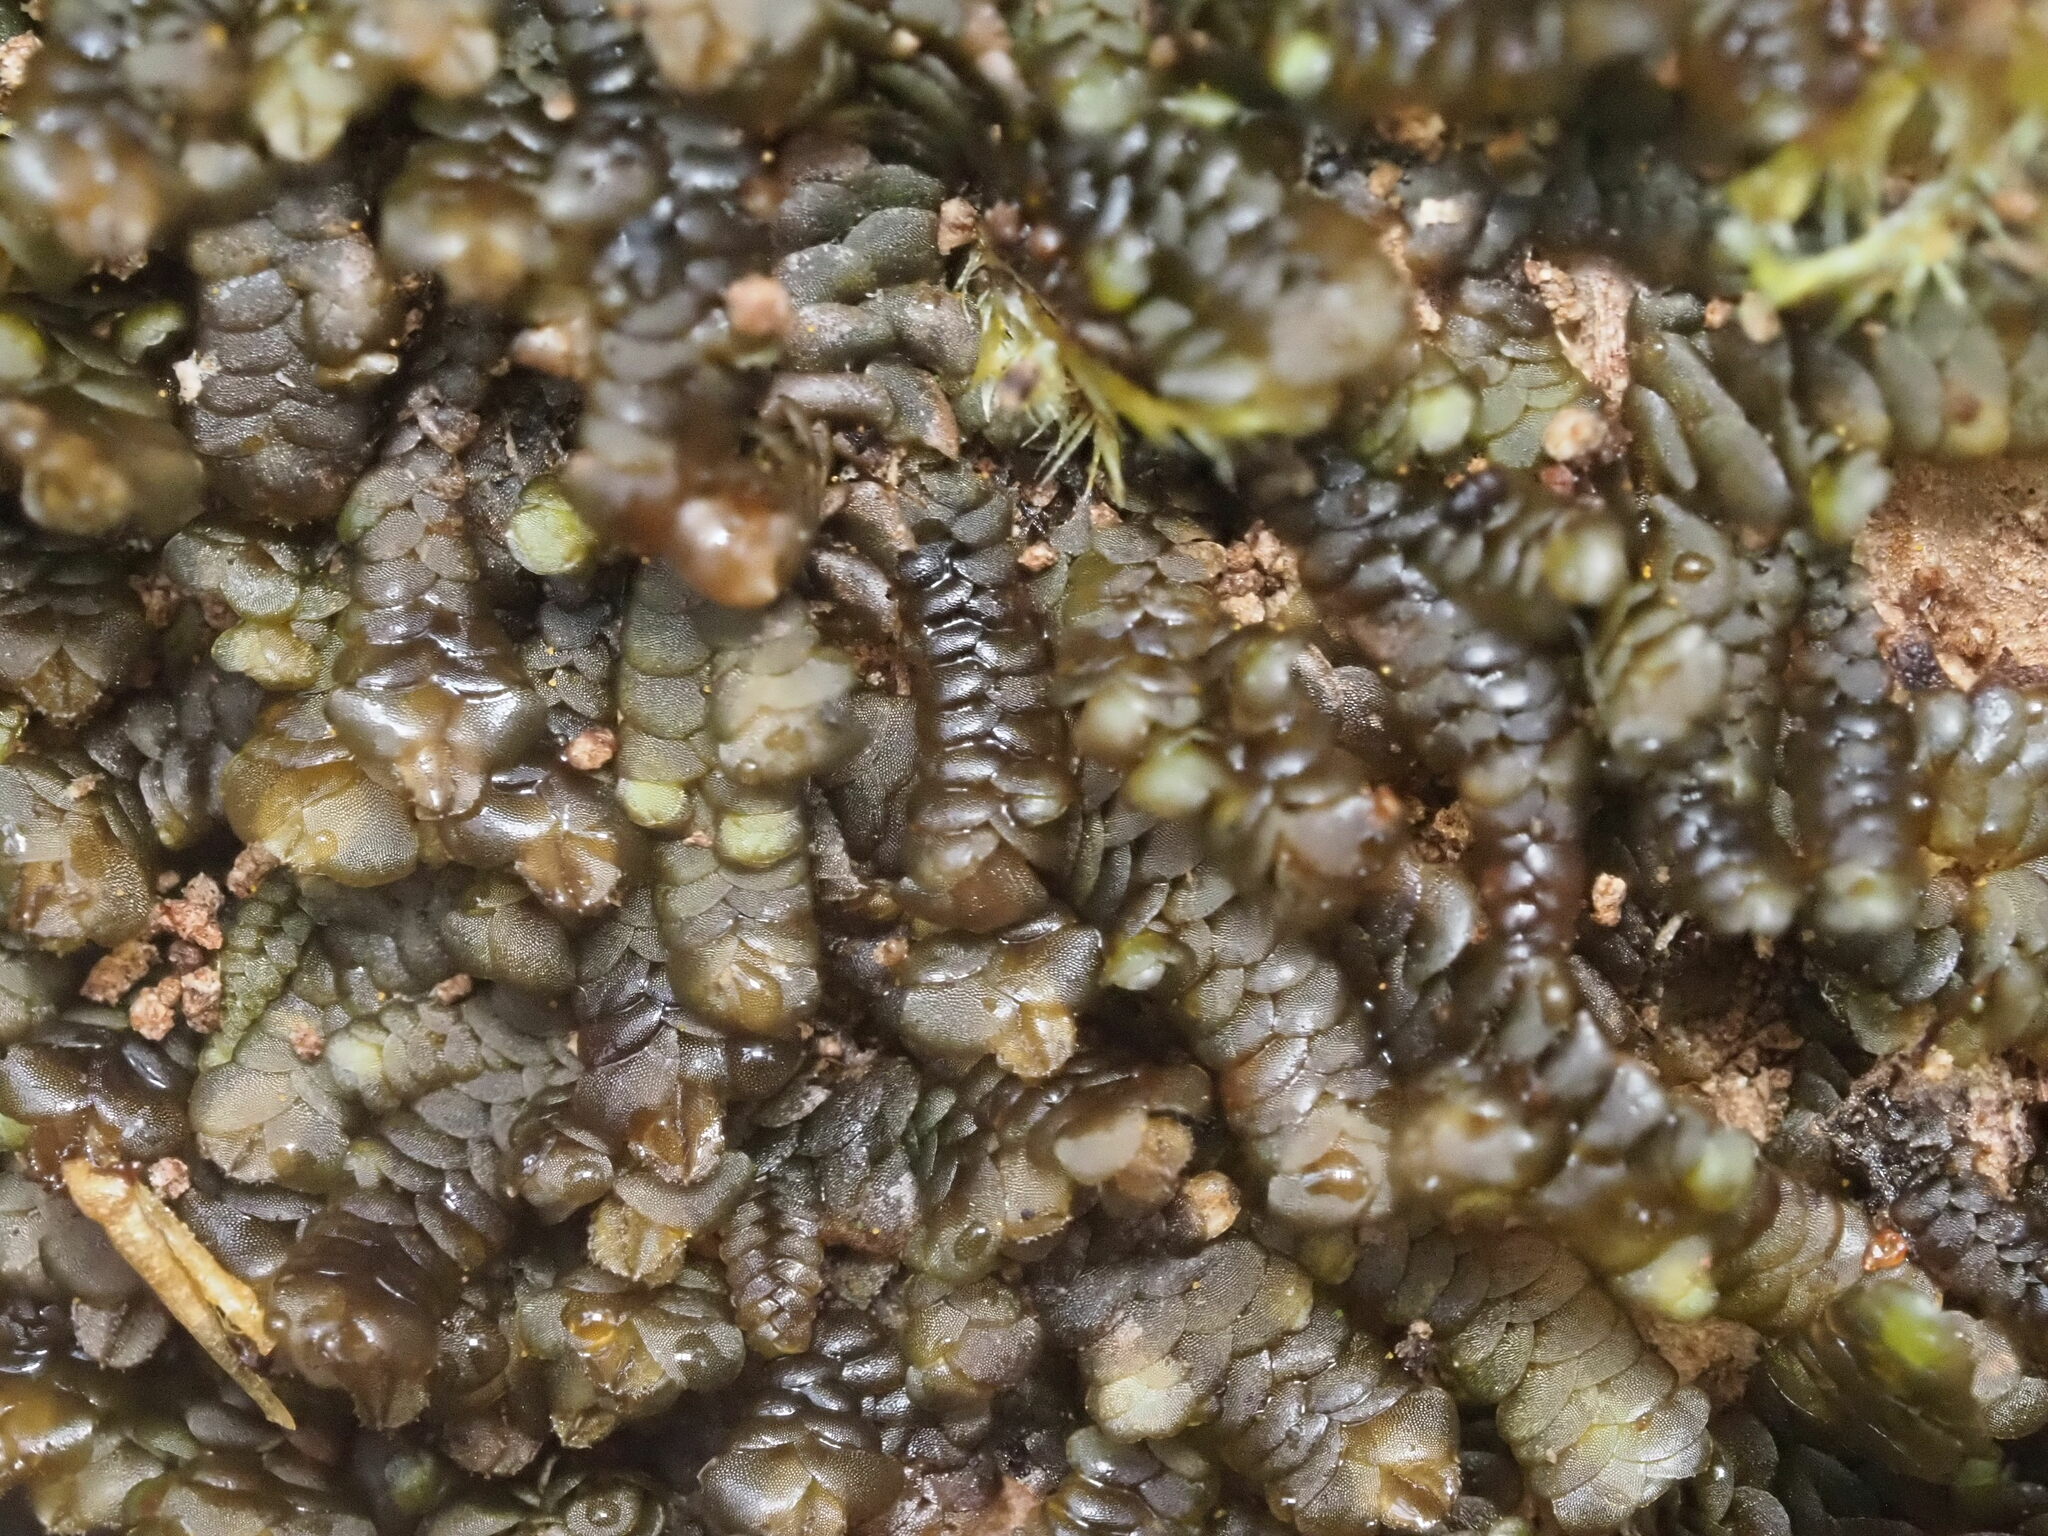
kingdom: Plantae
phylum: Marchantiophyta
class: Jungermanniopsida
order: Porellales
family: Lejeuneaceae
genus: Lopholejeunea
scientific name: Lopholejeunea nigricans
